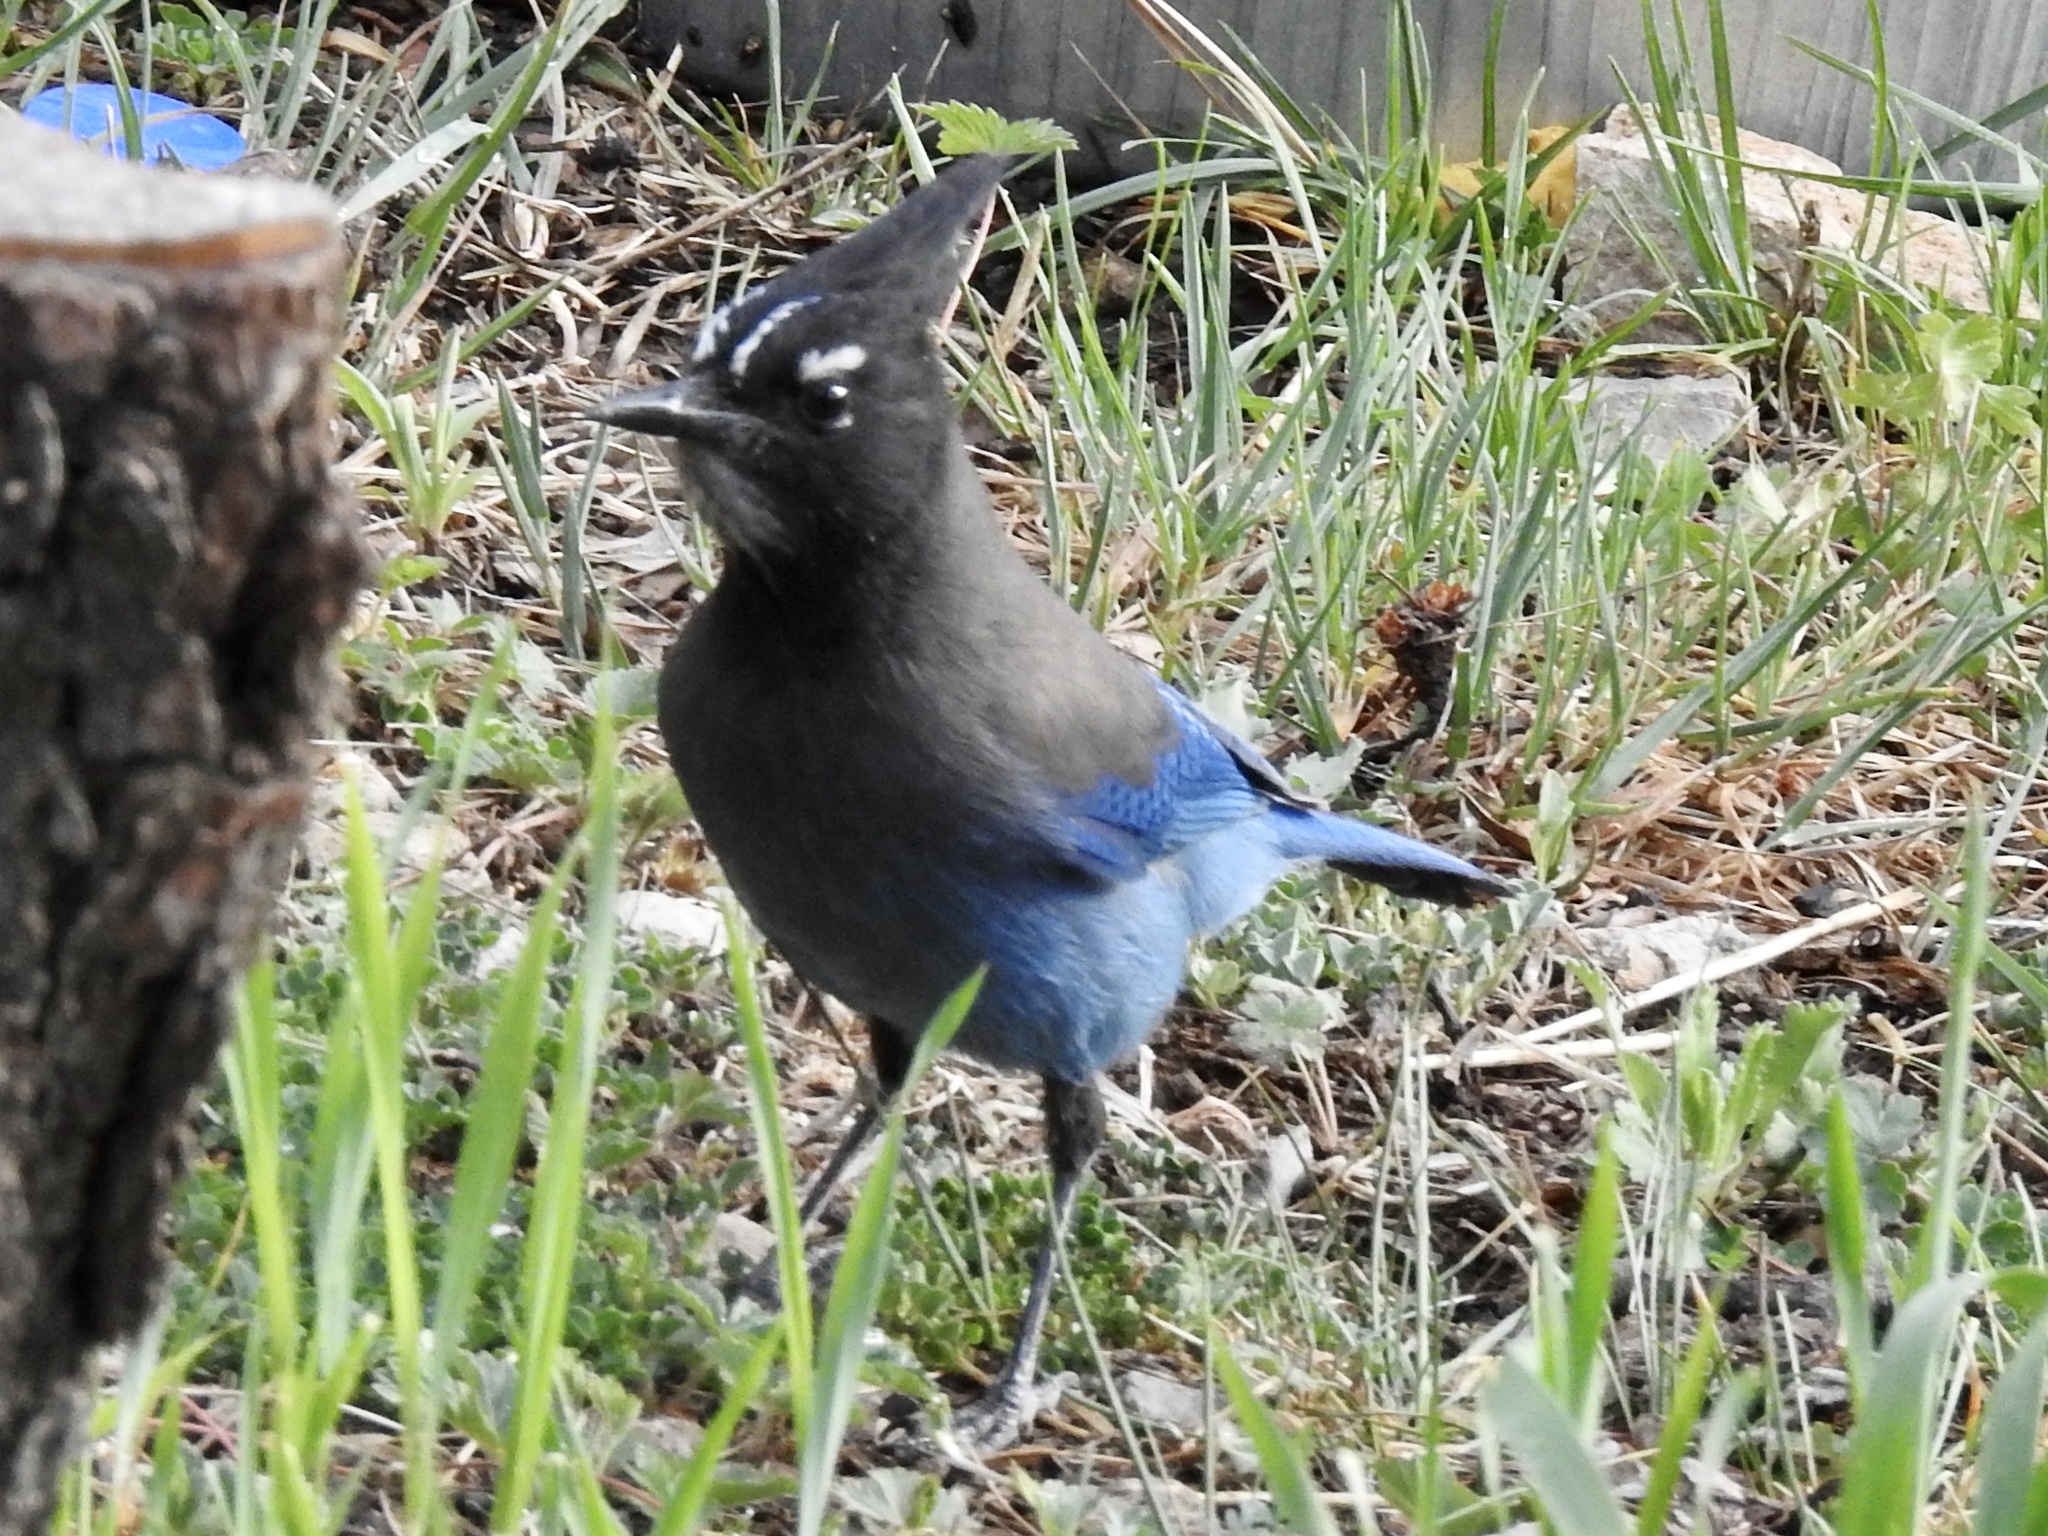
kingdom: Animalia
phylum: Chordata
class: Aves
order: Passeriformes
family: Corvidae
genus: Cyanocitta
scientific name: Cyanocitta stelleri
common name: Steller's jay
